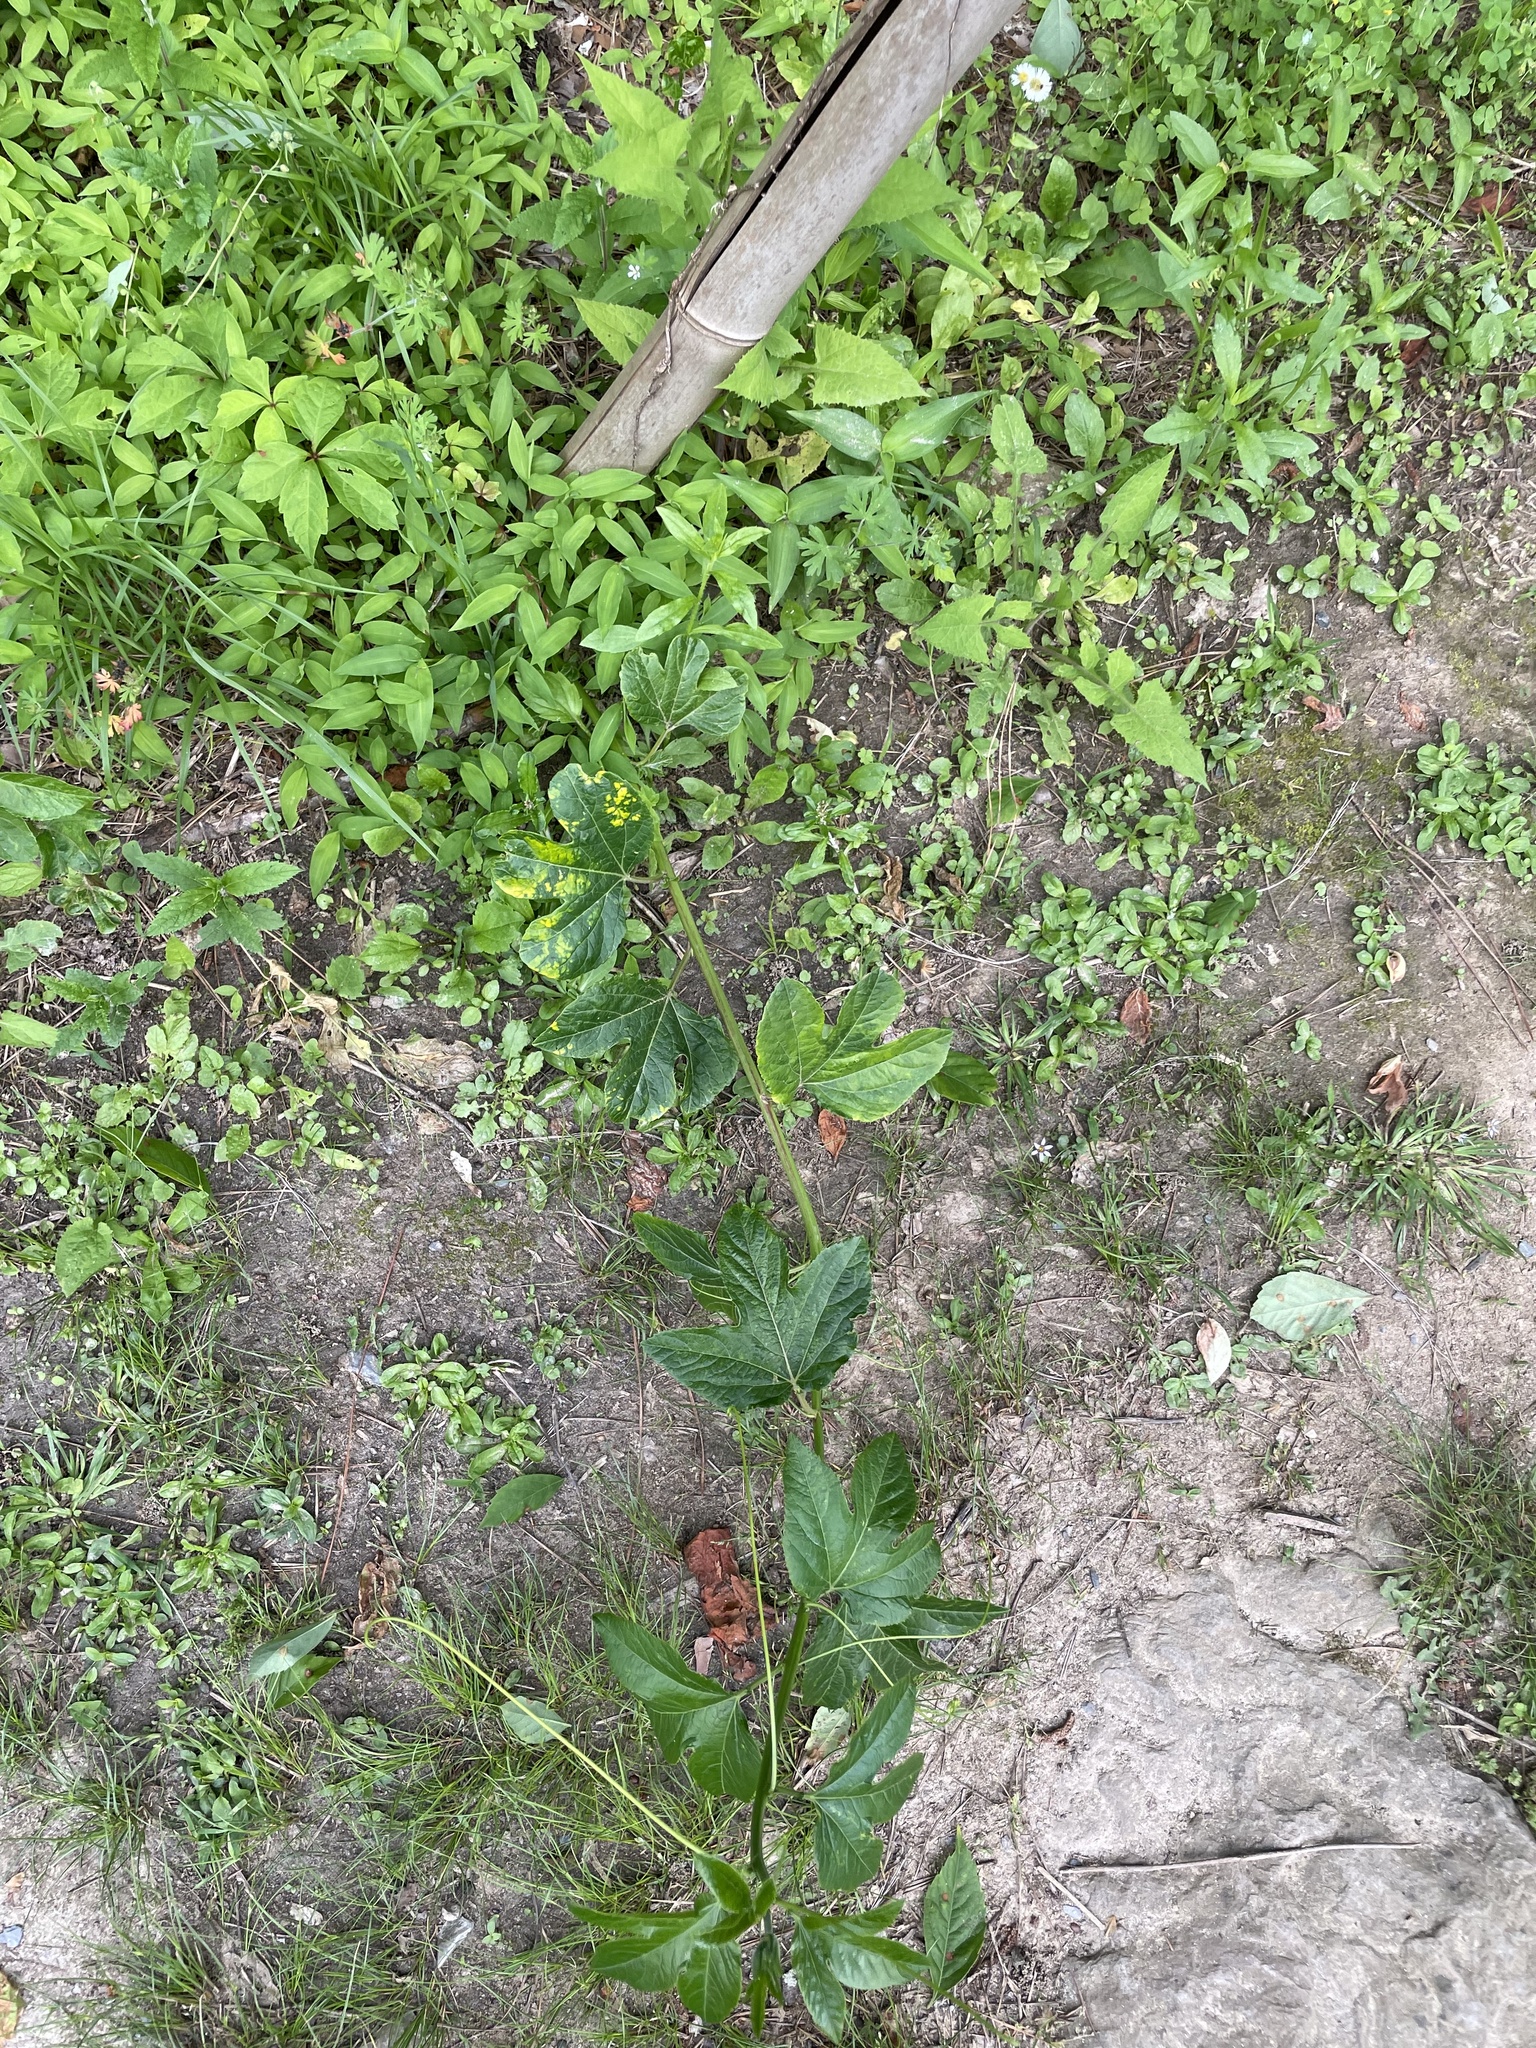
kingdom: Plantae
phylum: Tracheophyta
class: Magnoliopsida
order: Malpighiales
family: Passifloraceae
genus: Passiflora
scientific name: Passiflora incarnata
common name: Apricot-vine
